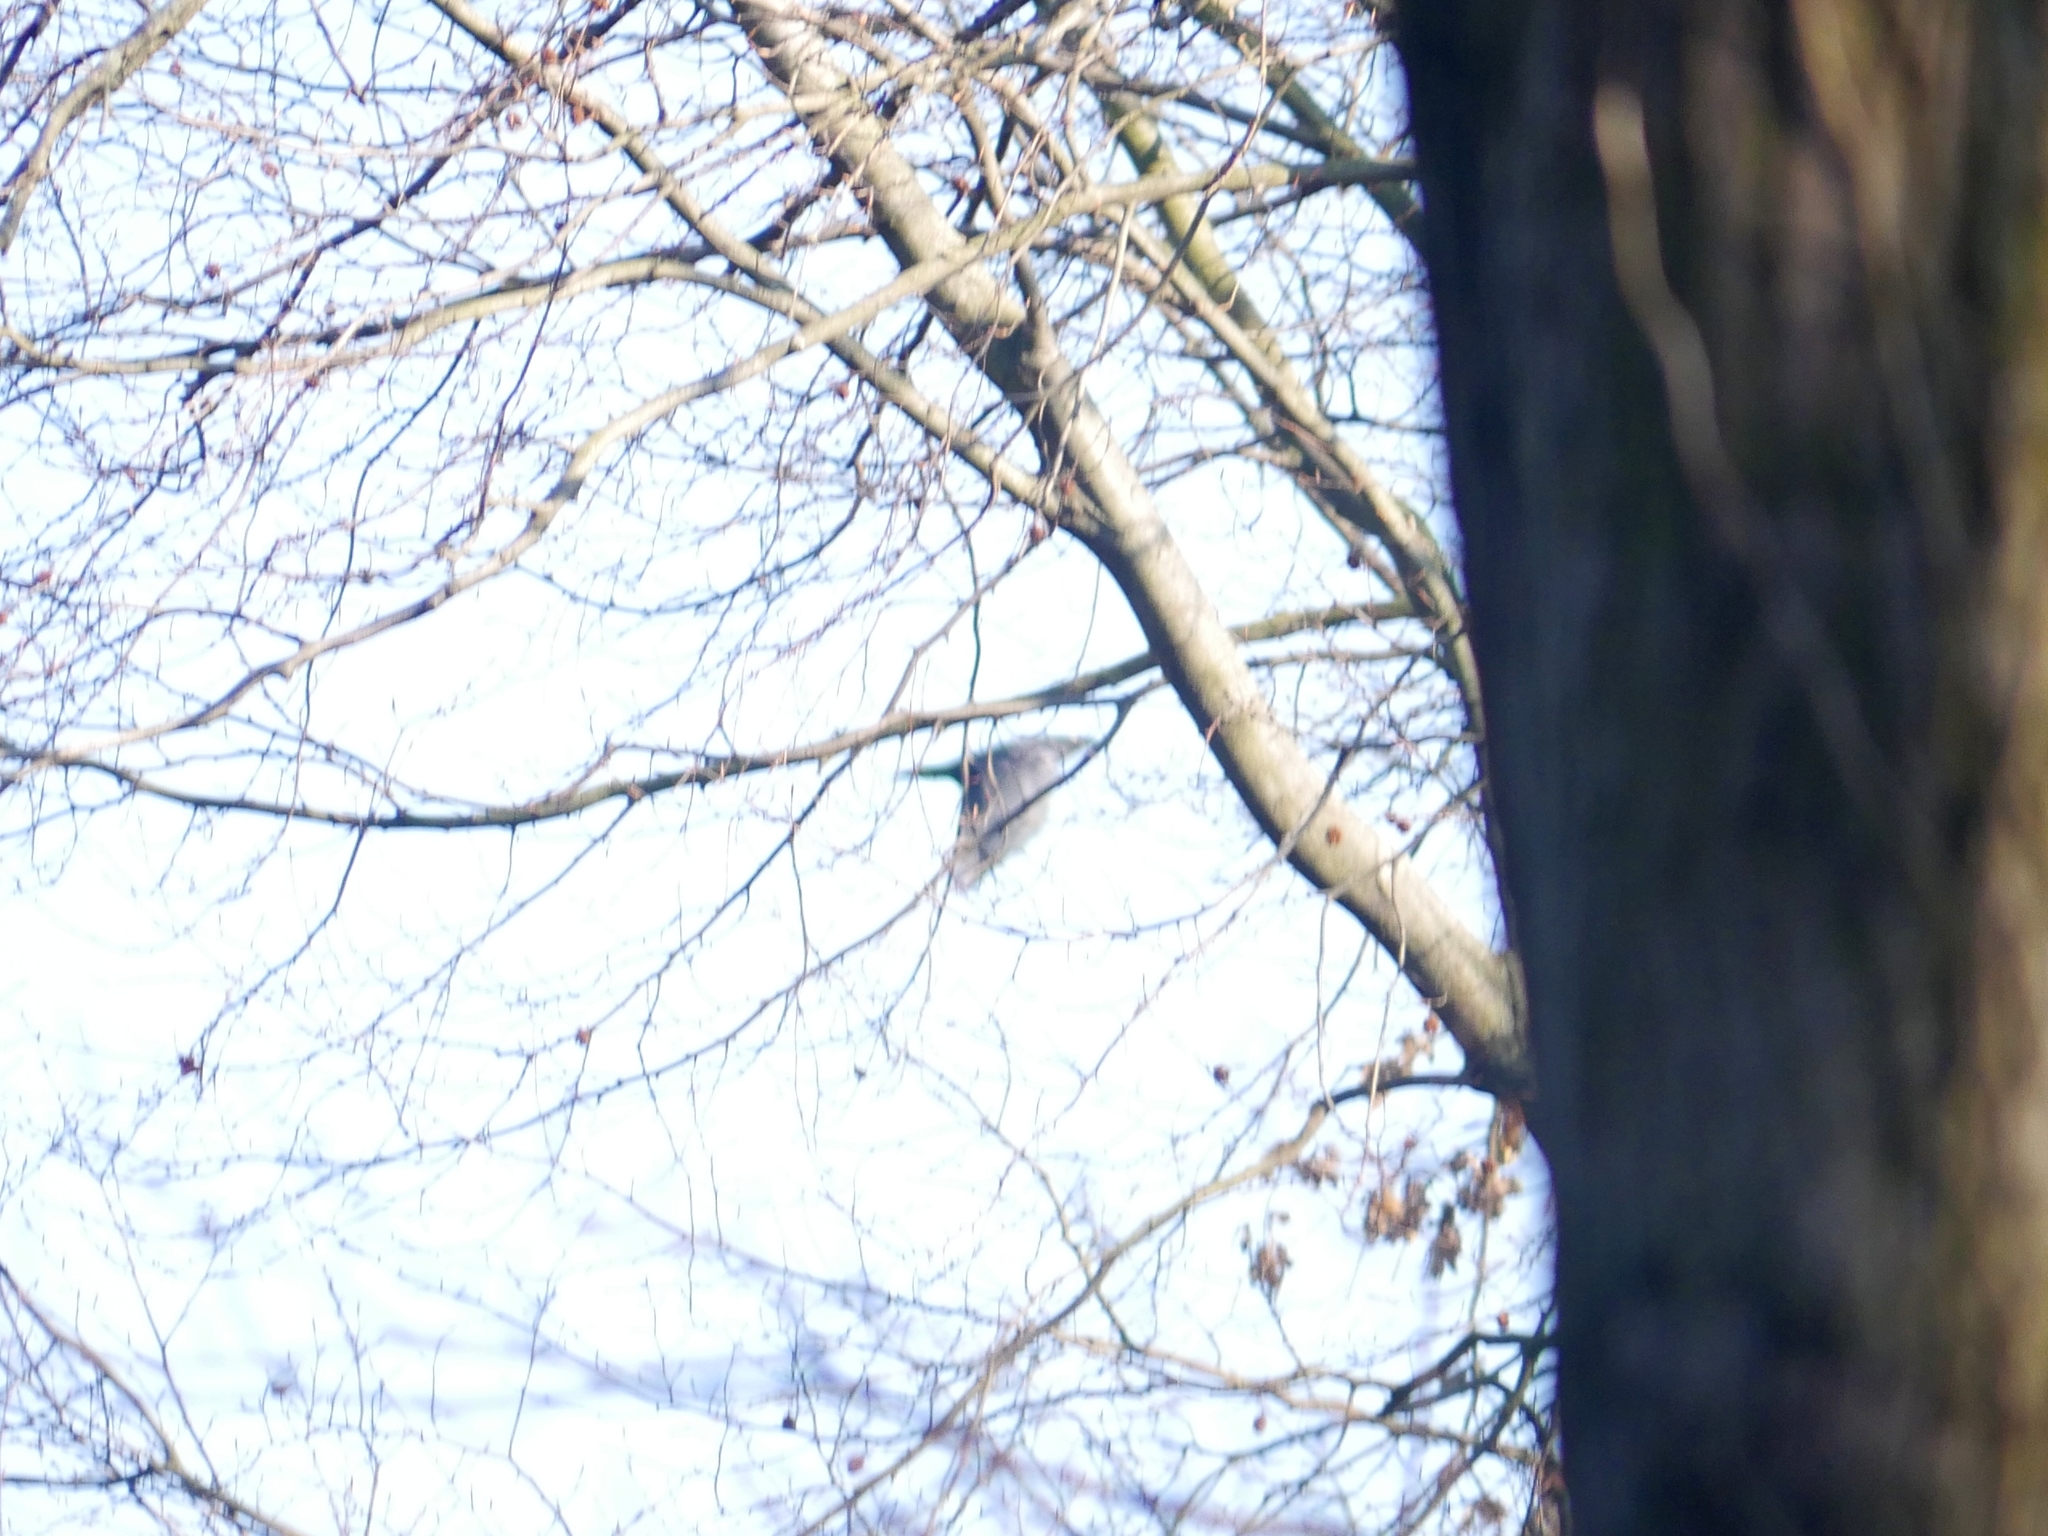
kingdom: Animalia
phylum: Chordata
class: Aves
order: Passeriformes
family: Corvidae
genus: Corvus
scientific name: Corvus corax
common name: Common raven
